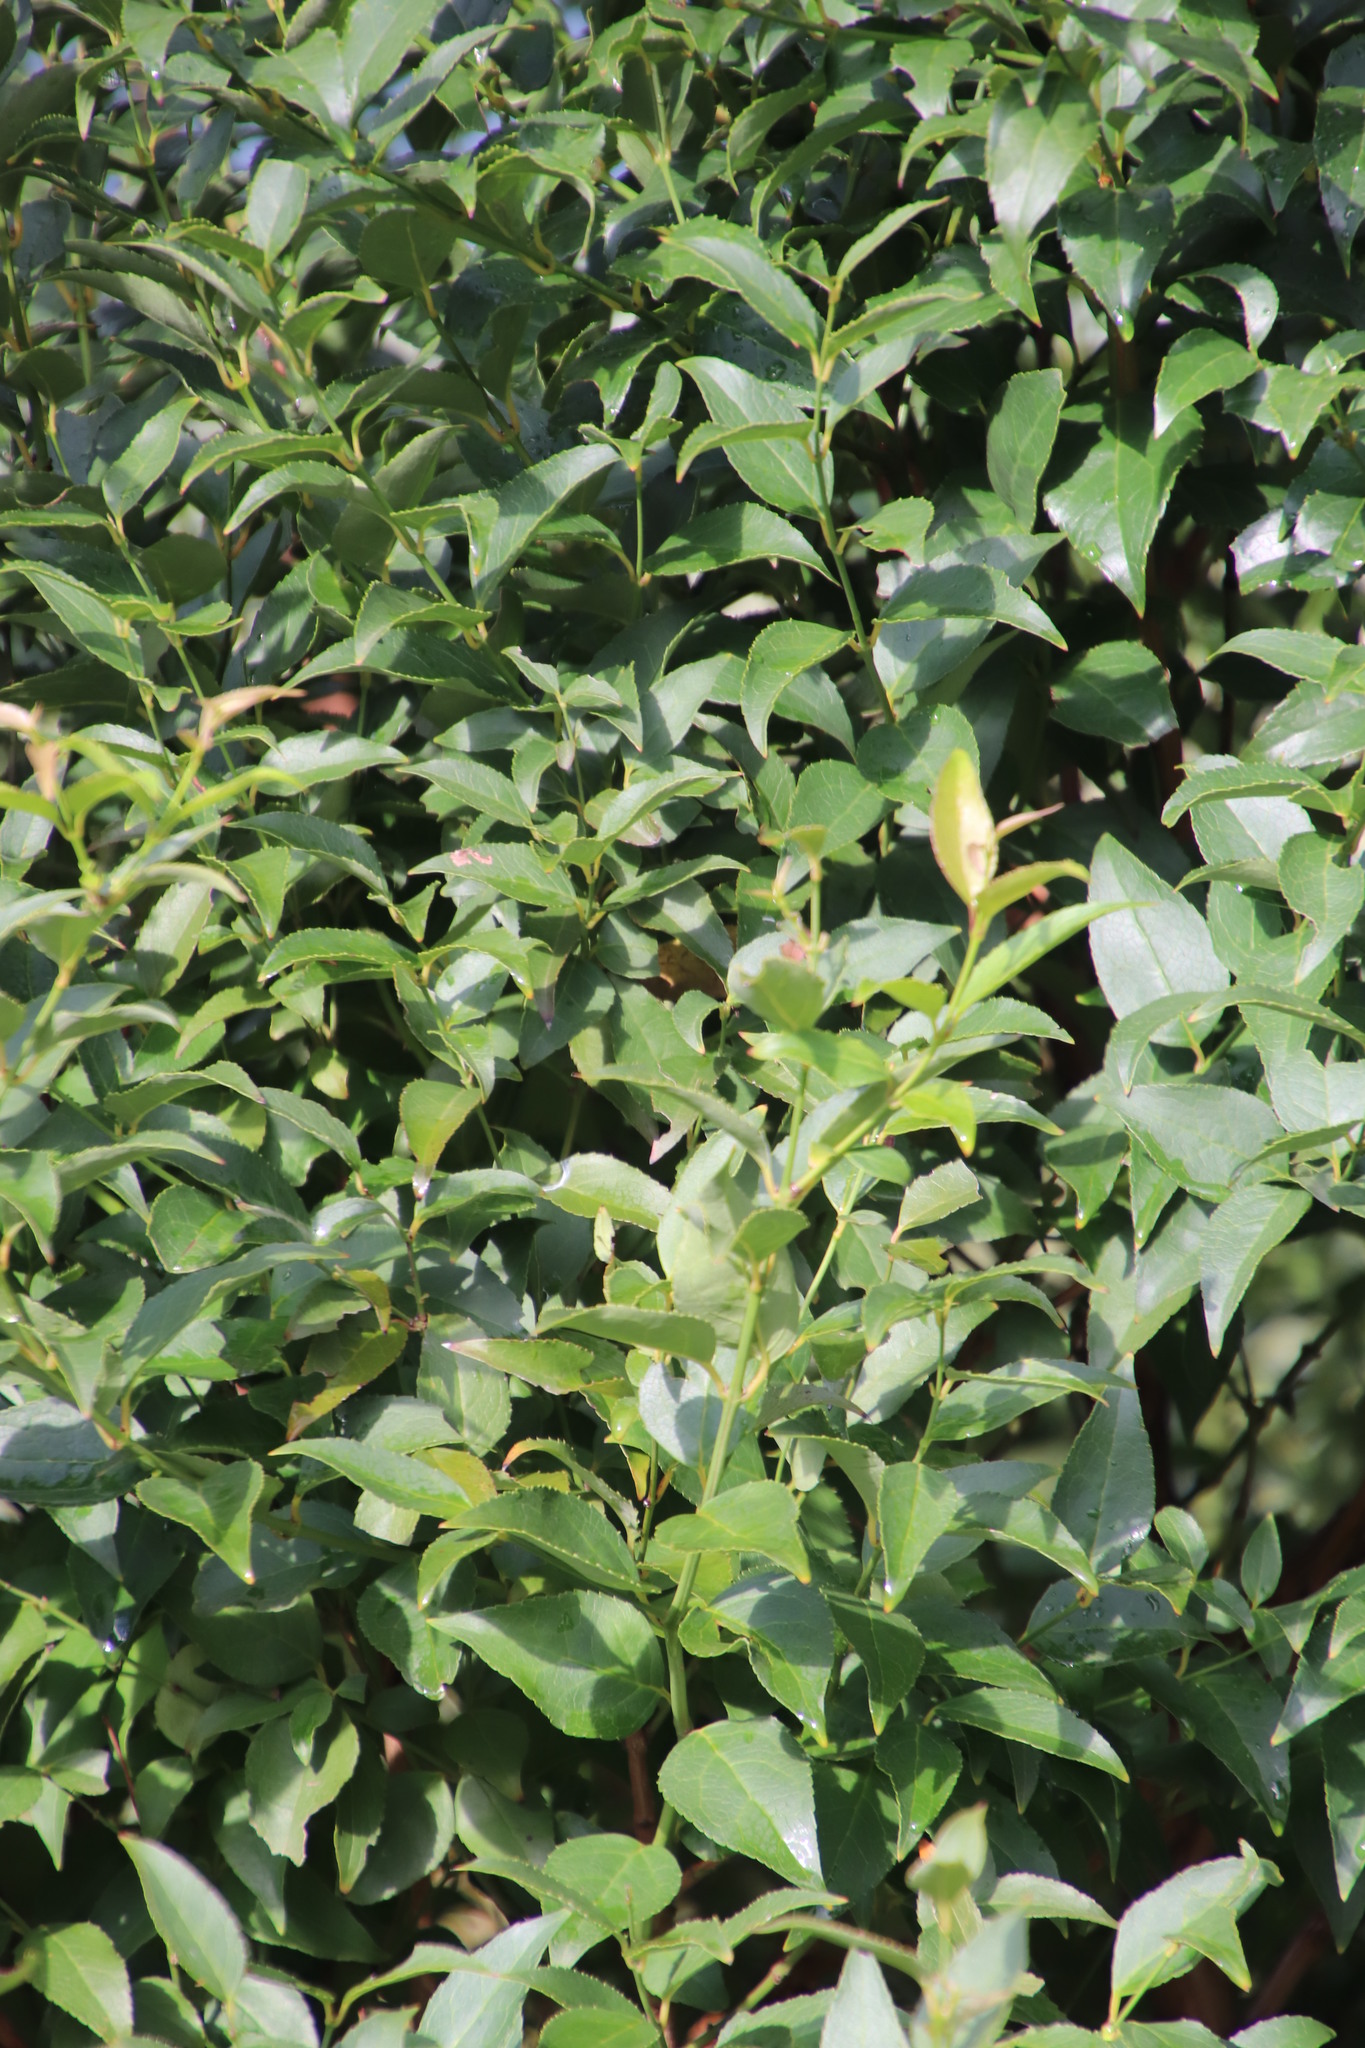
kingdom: Plantae
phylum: Tracheophyta
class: Magnoliopsida
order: Lamiales
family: Stilbaceae
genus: Halleria
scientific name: Halleria lucida
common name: Tree fuschia
